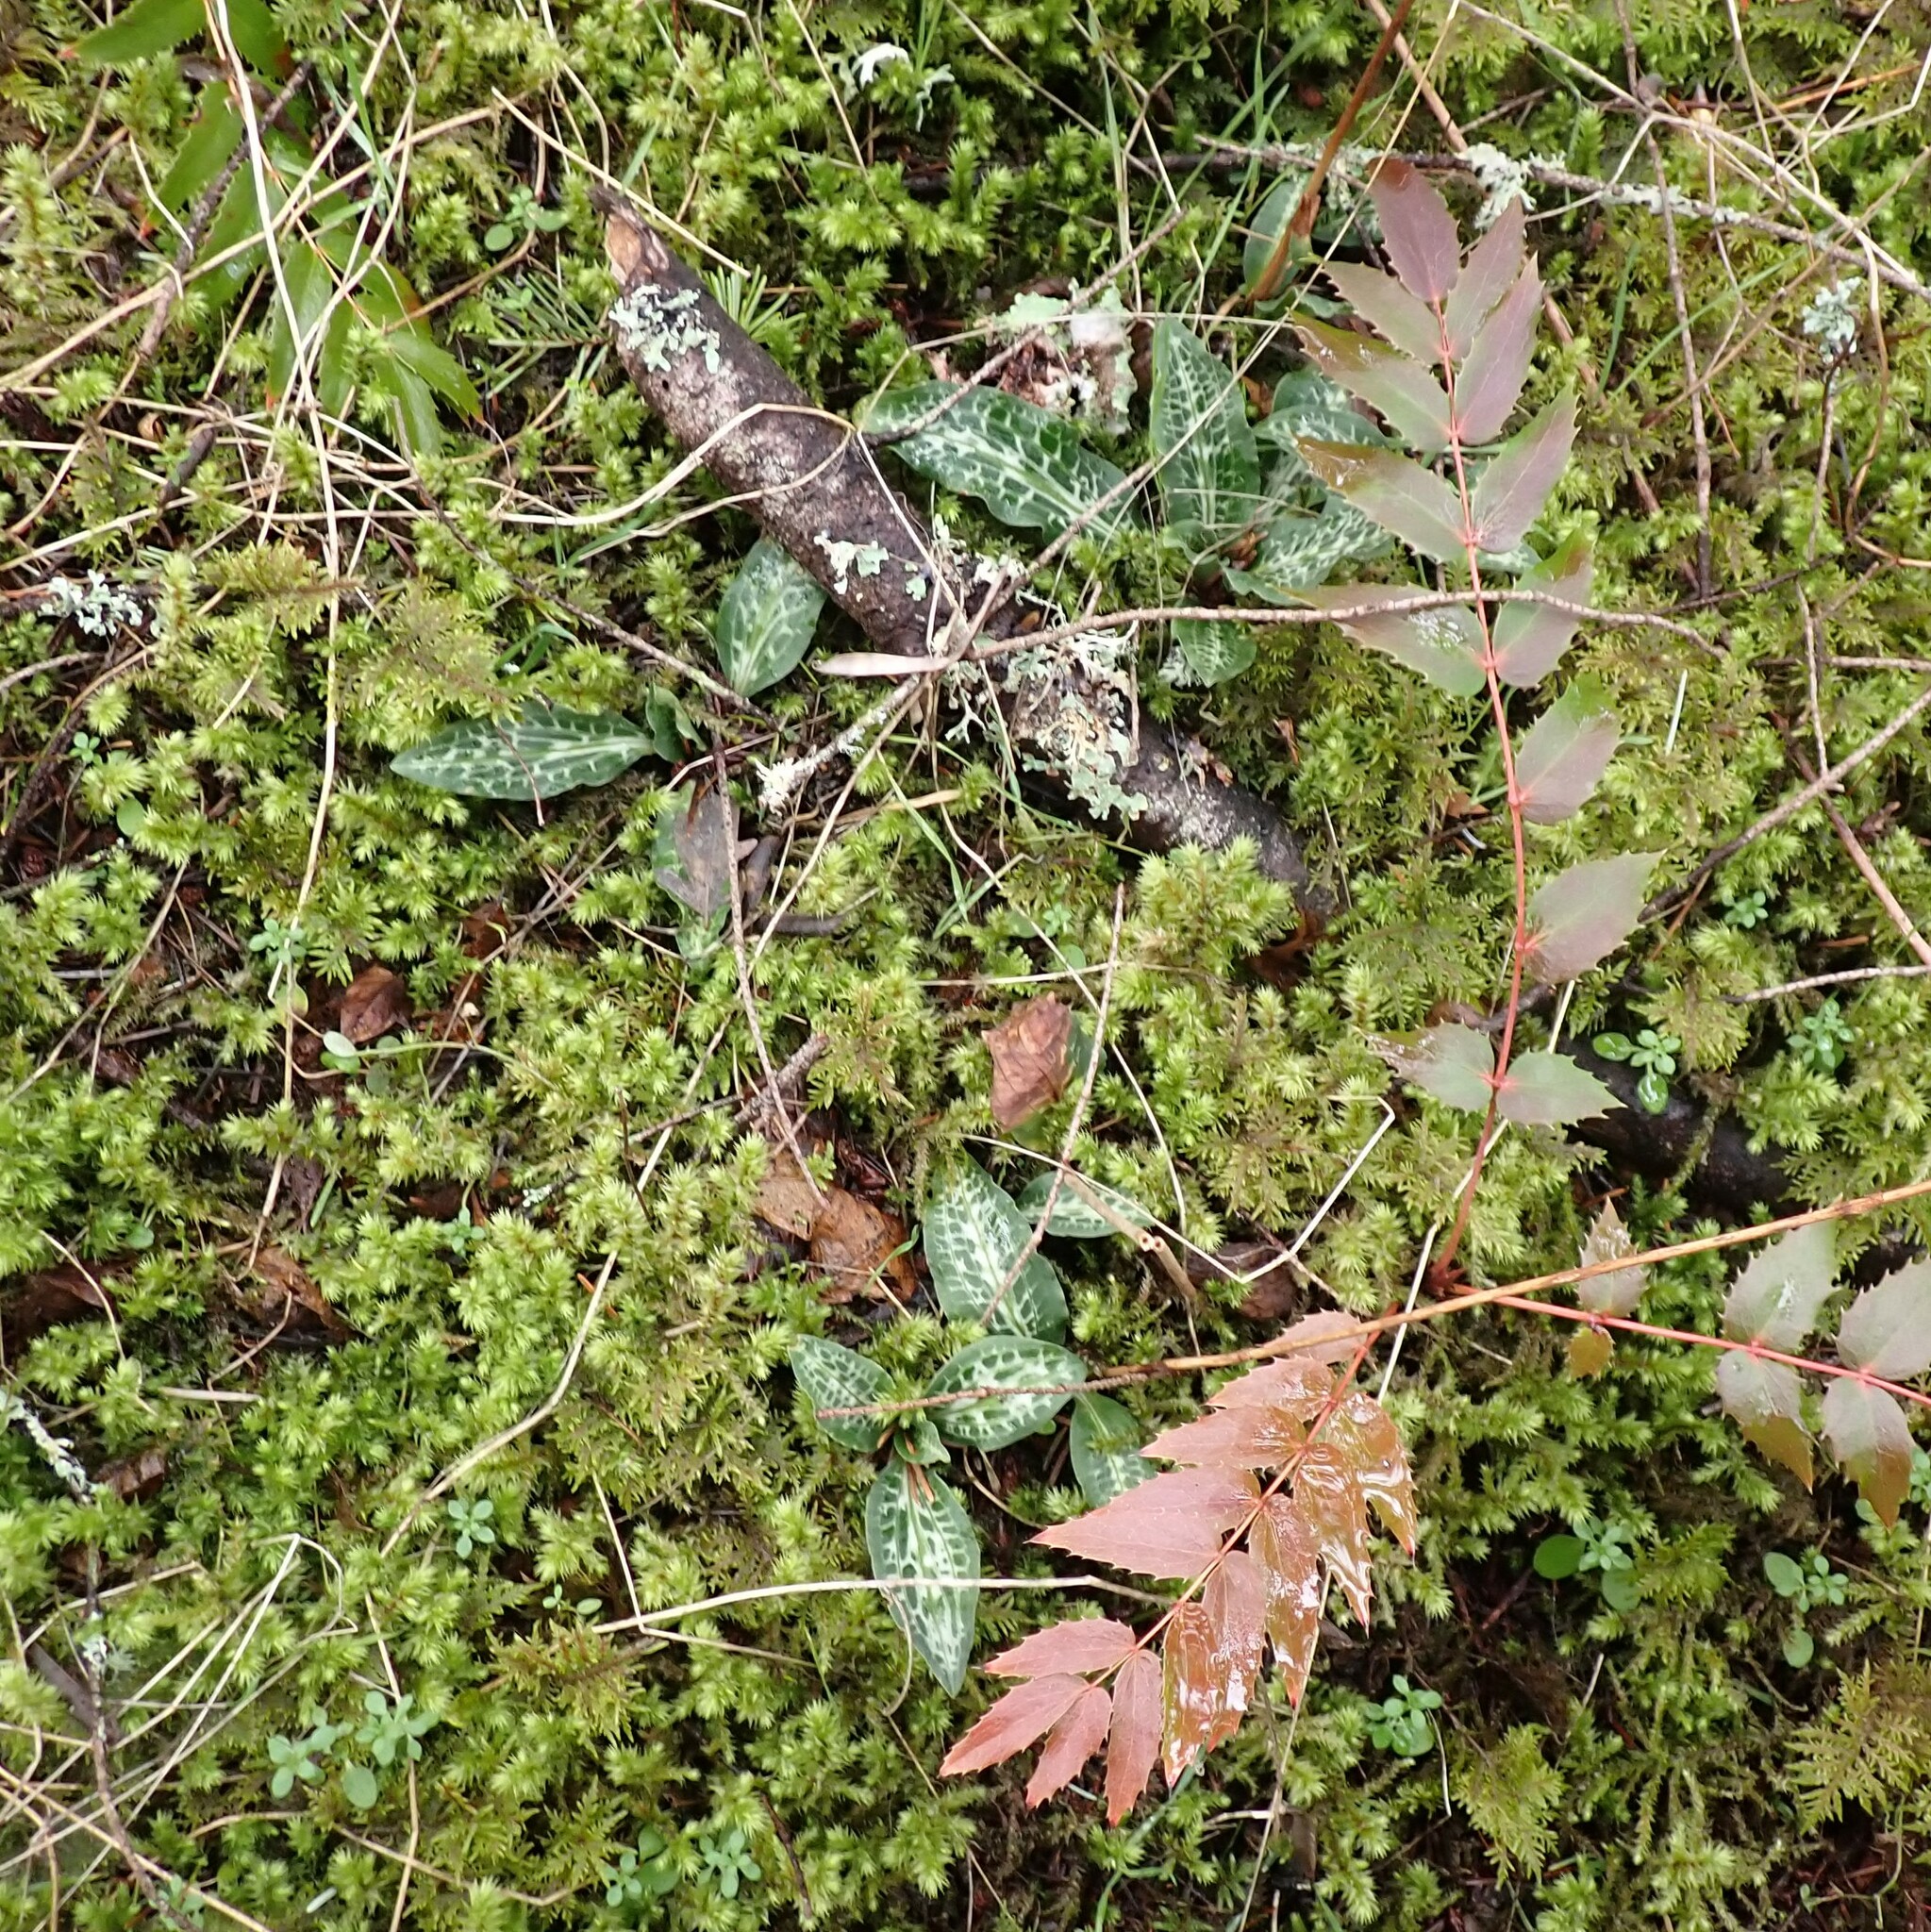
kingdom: Plantae
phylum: Tracheophyta
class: Liliopsida
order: Asparagales
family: Orchidaceae
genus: Goodyera
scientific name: Goodyera oblongifolia
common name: Giant rattlesnake-plantain
